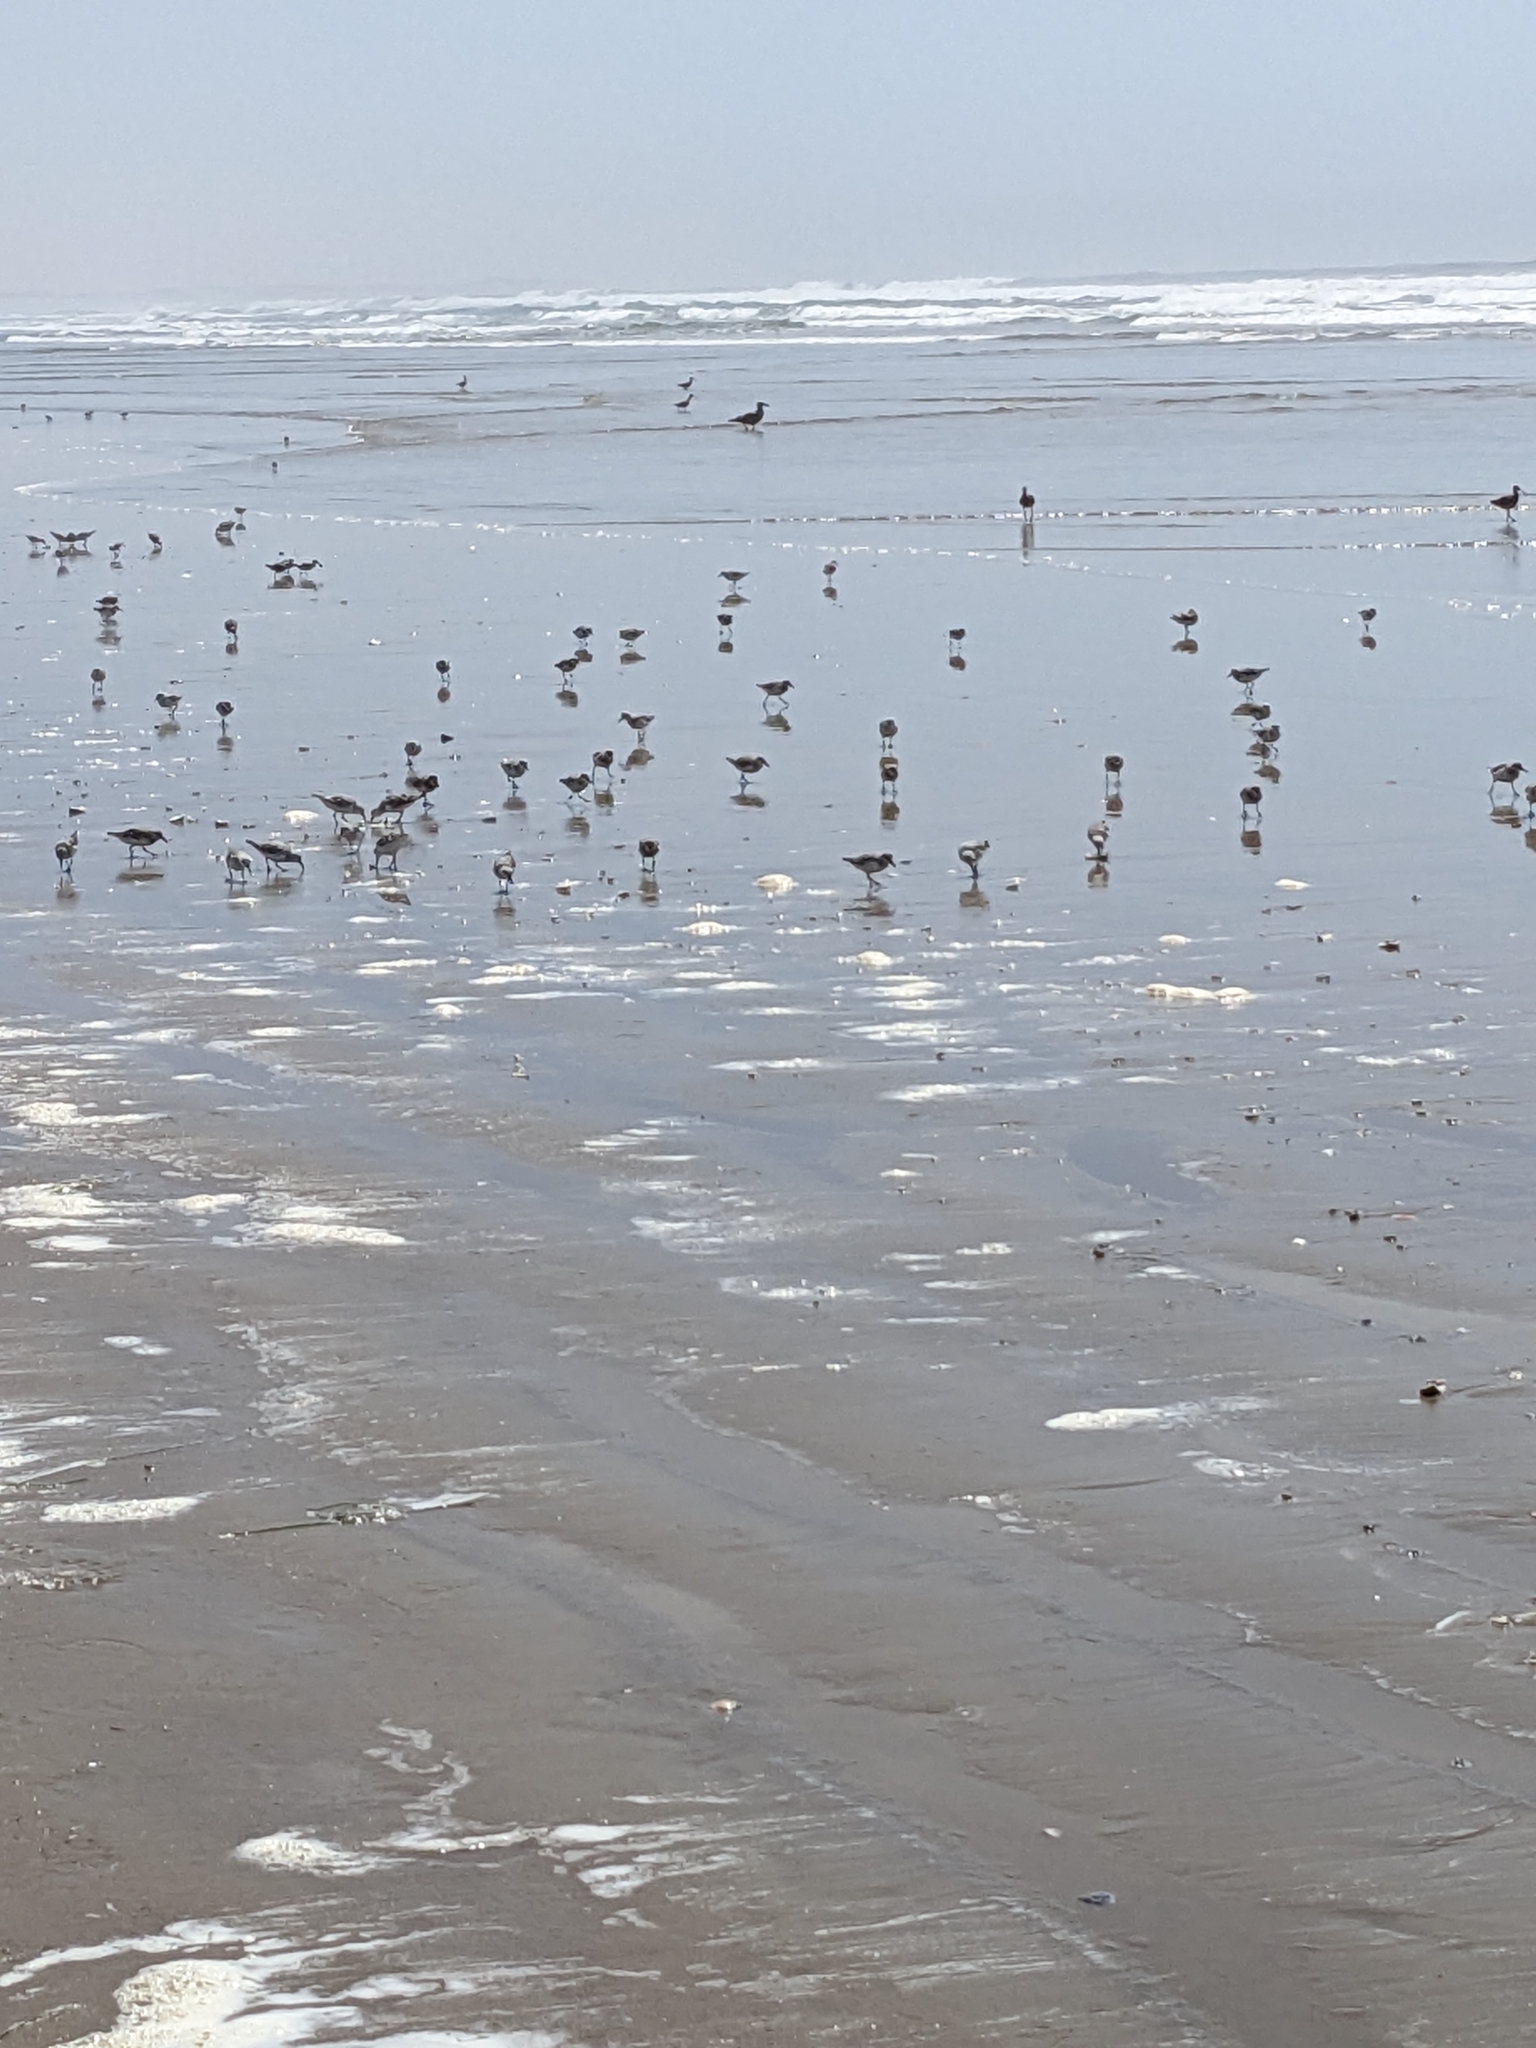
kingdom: Animalia
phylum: Chordata
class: Aves
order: Charadriiformes
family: Scolopacidae
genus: Calidris
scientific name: Calidris alba
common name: Sanderling
